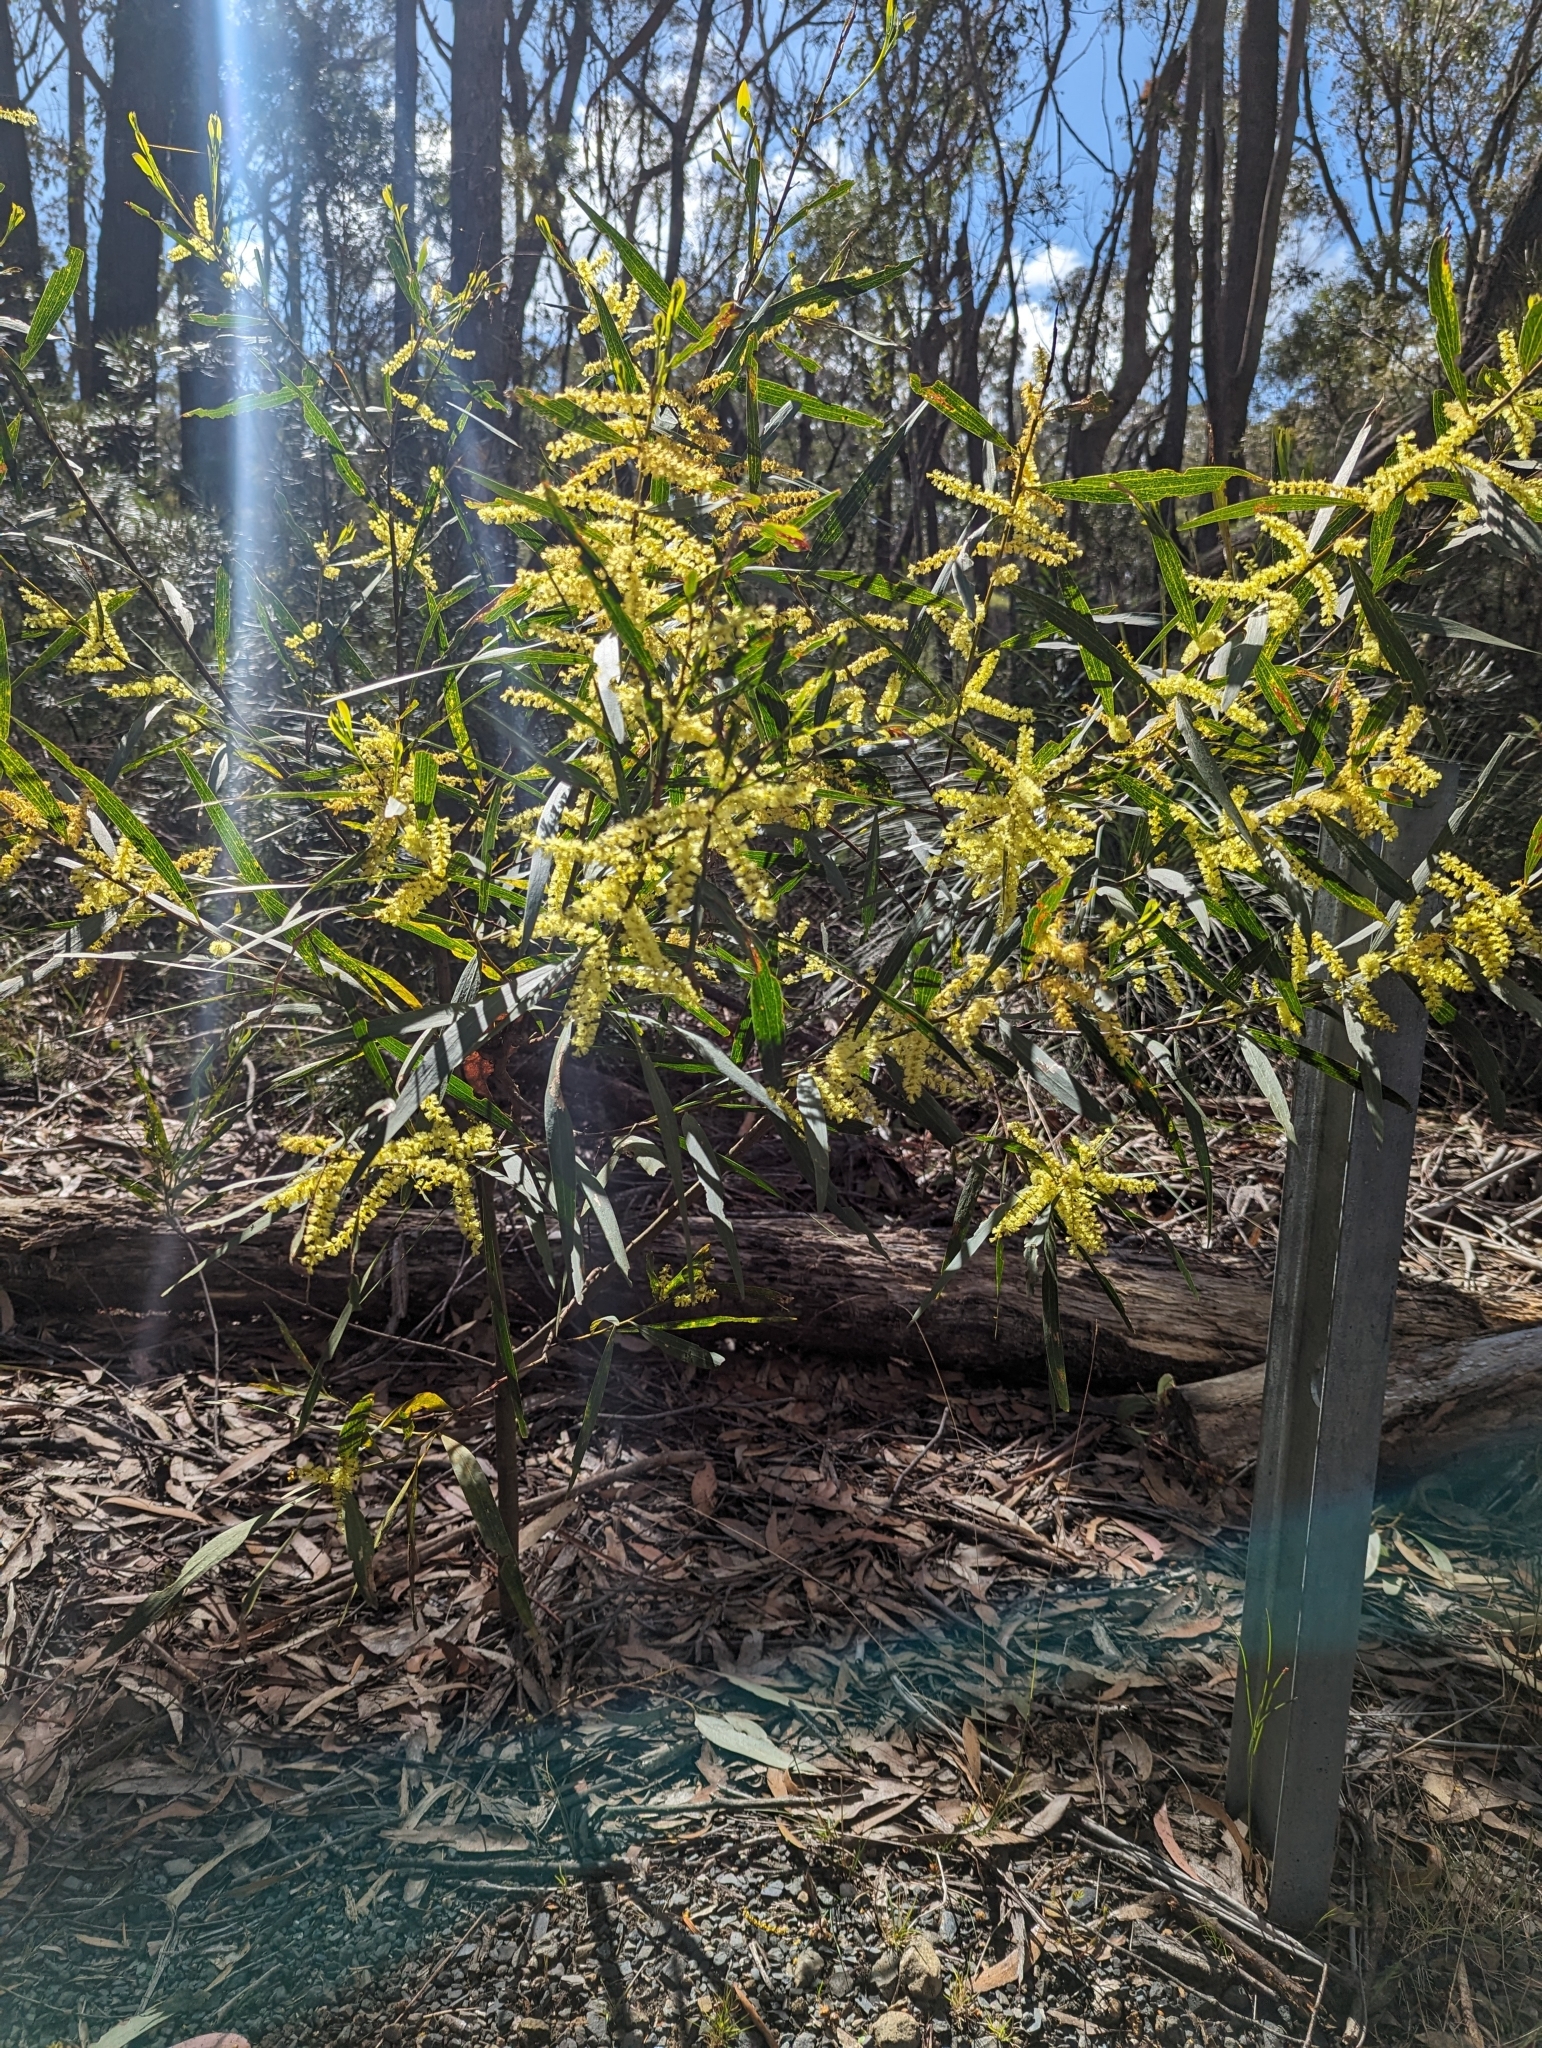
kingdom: Plantae
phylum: Tracheophyta
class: Magnoliopsida
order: Fabales
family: Fabaceae
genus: Acacia
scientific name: Acacia longifolia
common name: Sydney golden wattle
